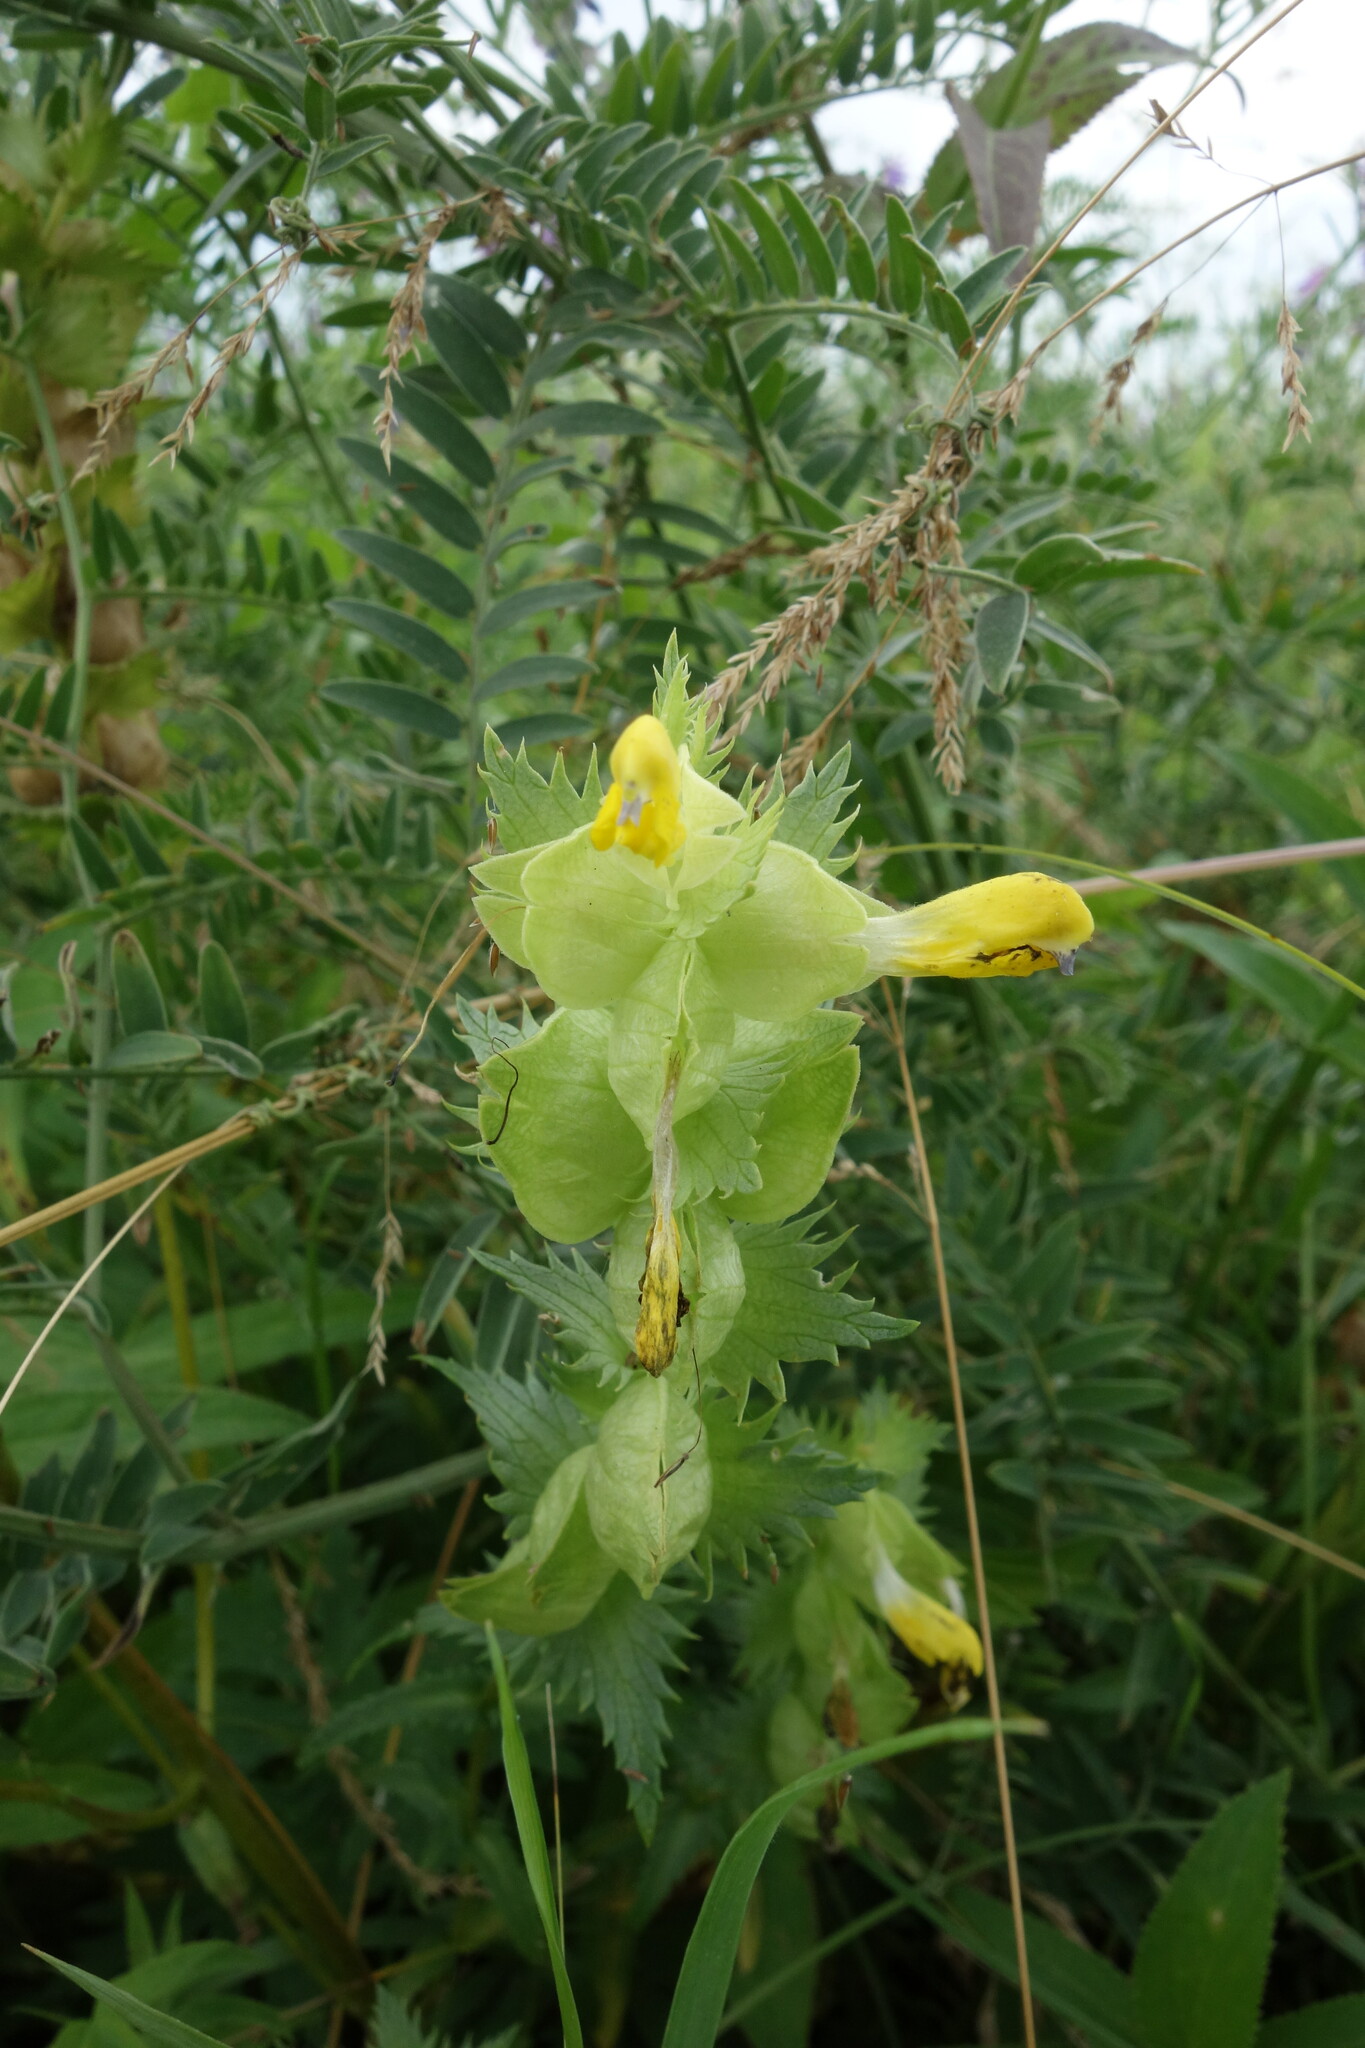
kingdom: Plantae
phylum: Tracheophyta
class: Magnoliopsida
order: Lamiales
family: Orobanchaceae
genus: Rhinanthus
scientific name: Rhinanthus serotinus
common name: Late-flowering yellow rattle
